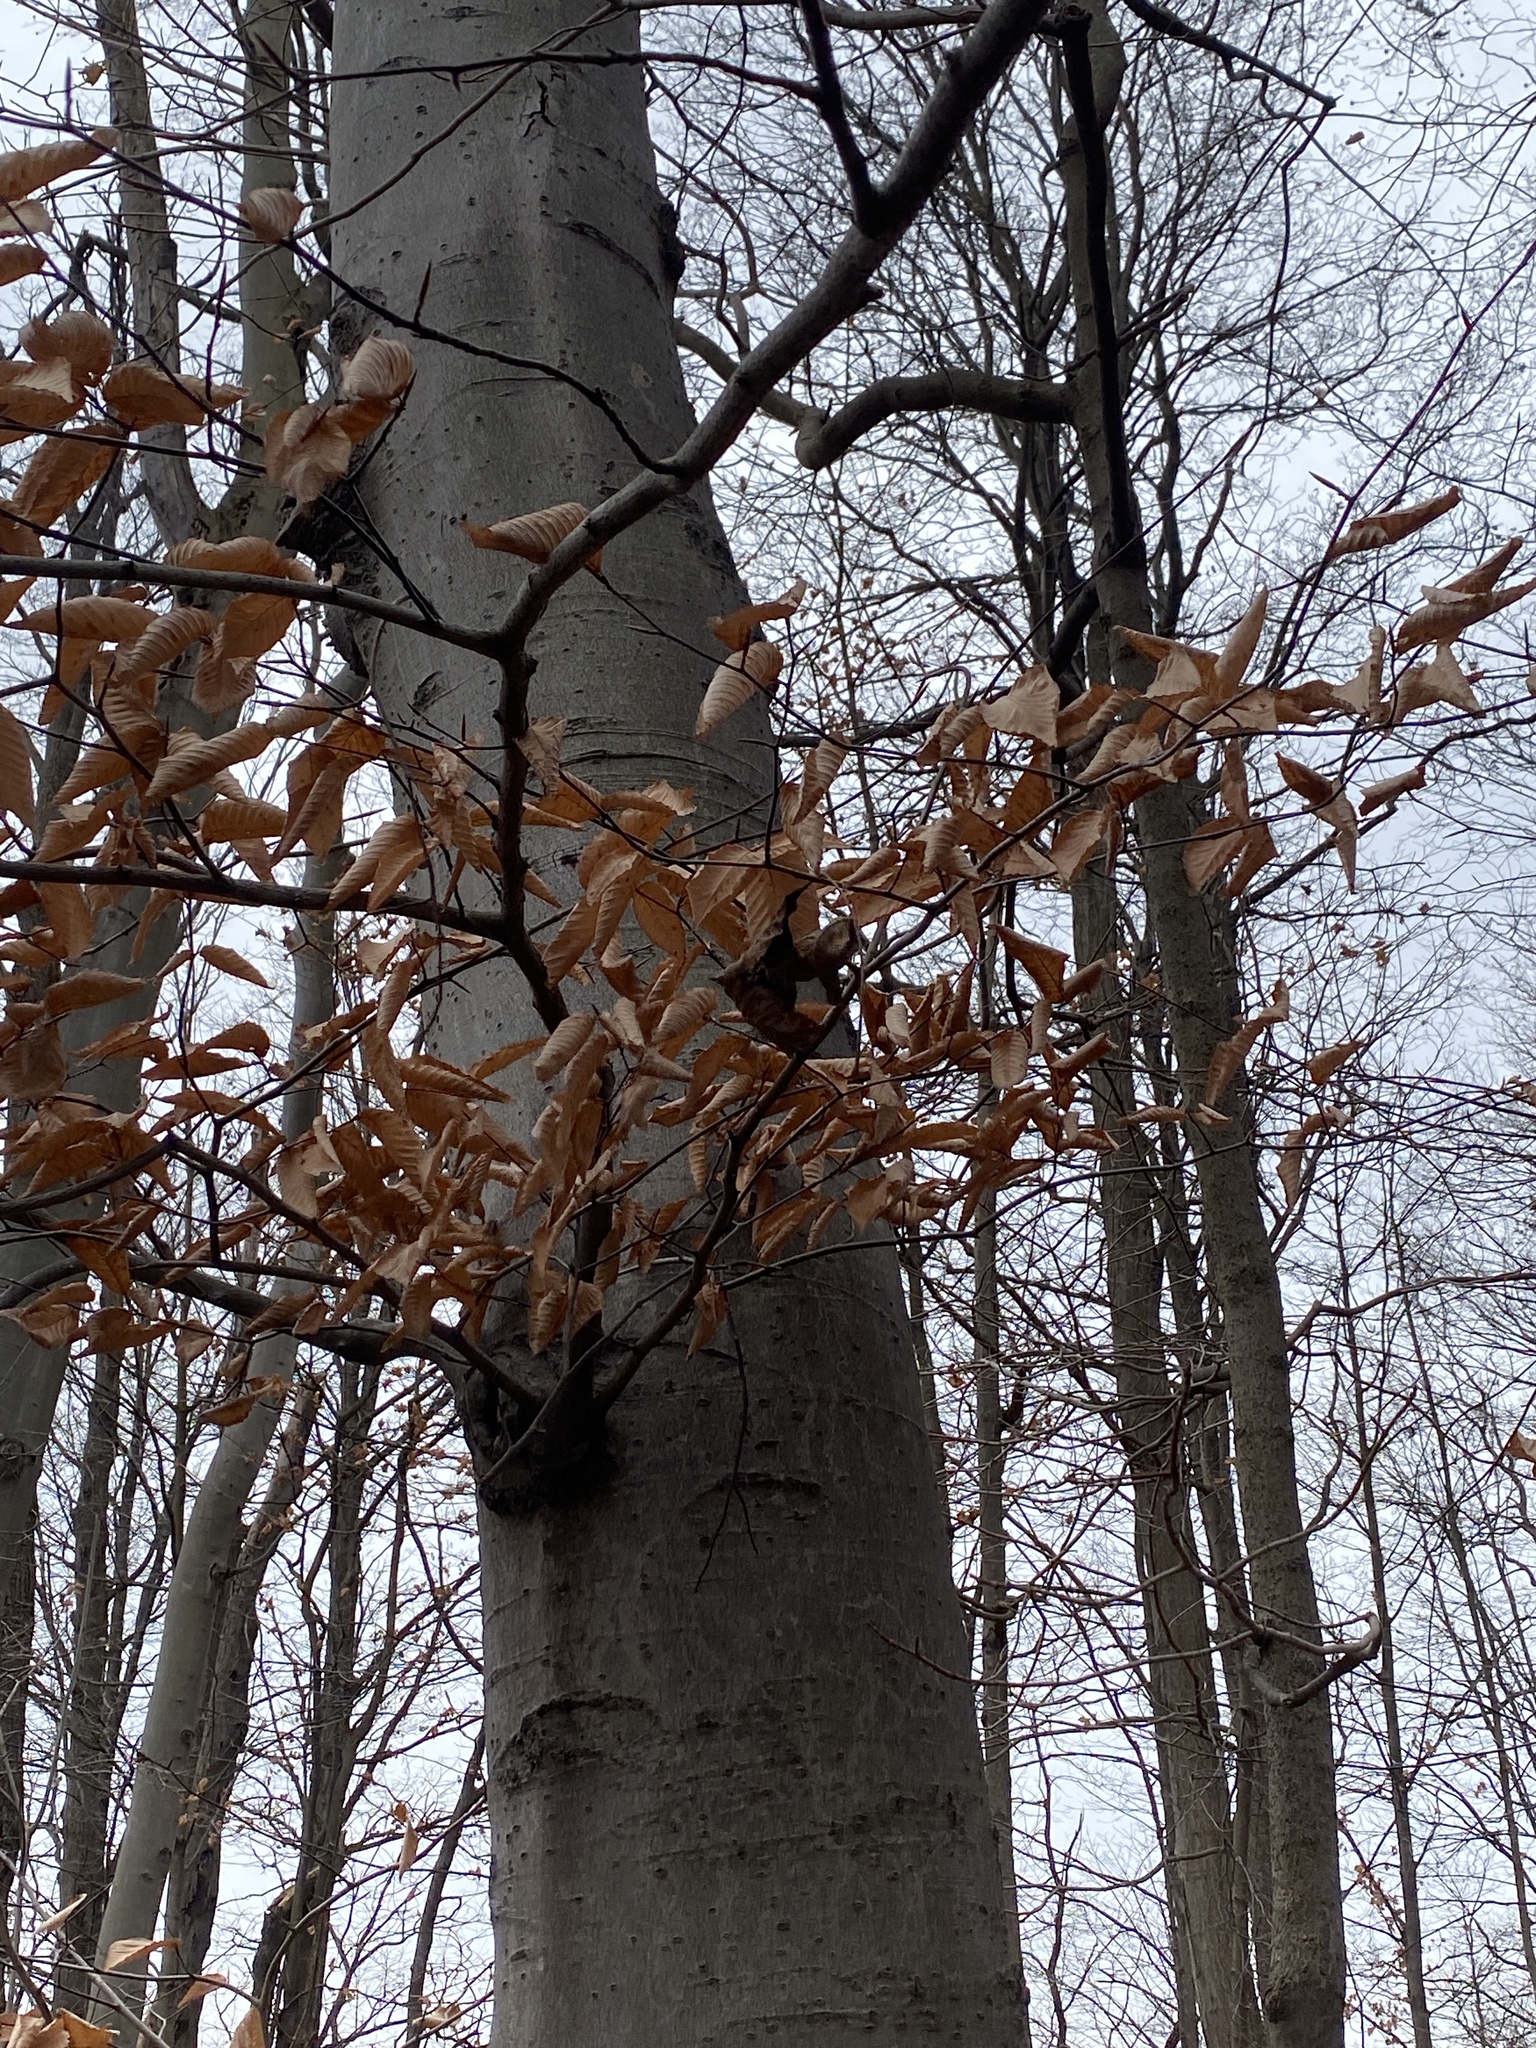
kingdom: Plantae
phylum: Tracheophyta
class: Magnoliopsida
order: Fagales
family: Fagaceae
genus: Fagus
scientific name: Fagus grandifolia
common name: American beech
